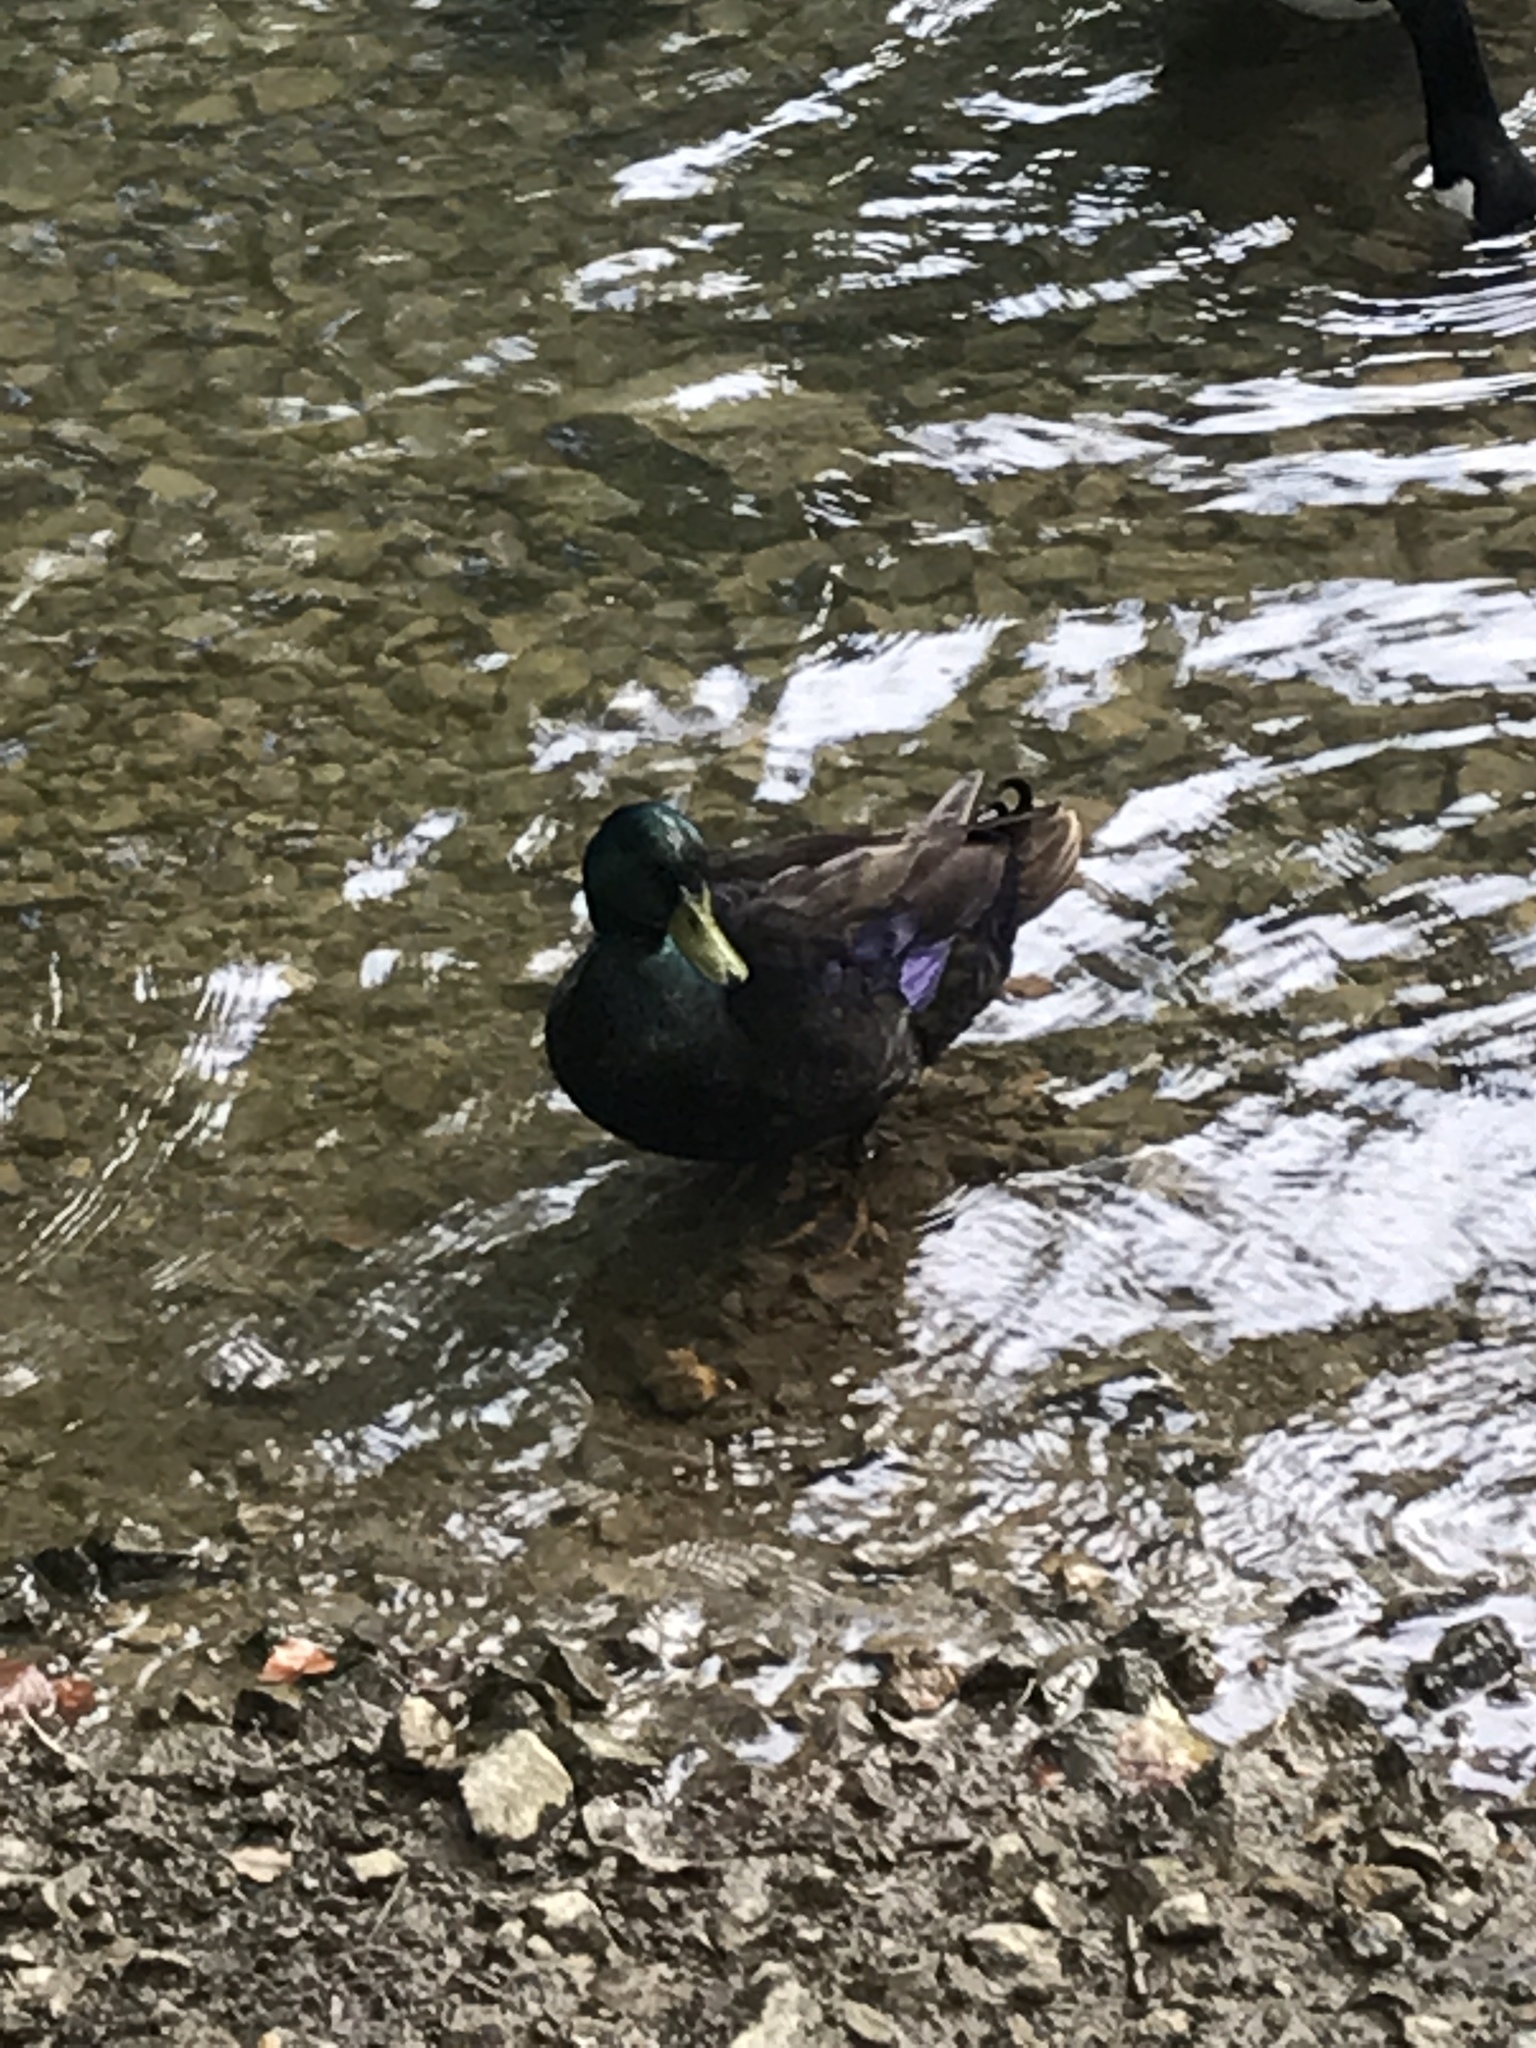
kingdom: Animalia
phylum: Chordata
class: Aves
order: Anseriformes
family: Anatidae
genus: Anas
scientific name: Anas platyrhynchos
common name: Mallard
